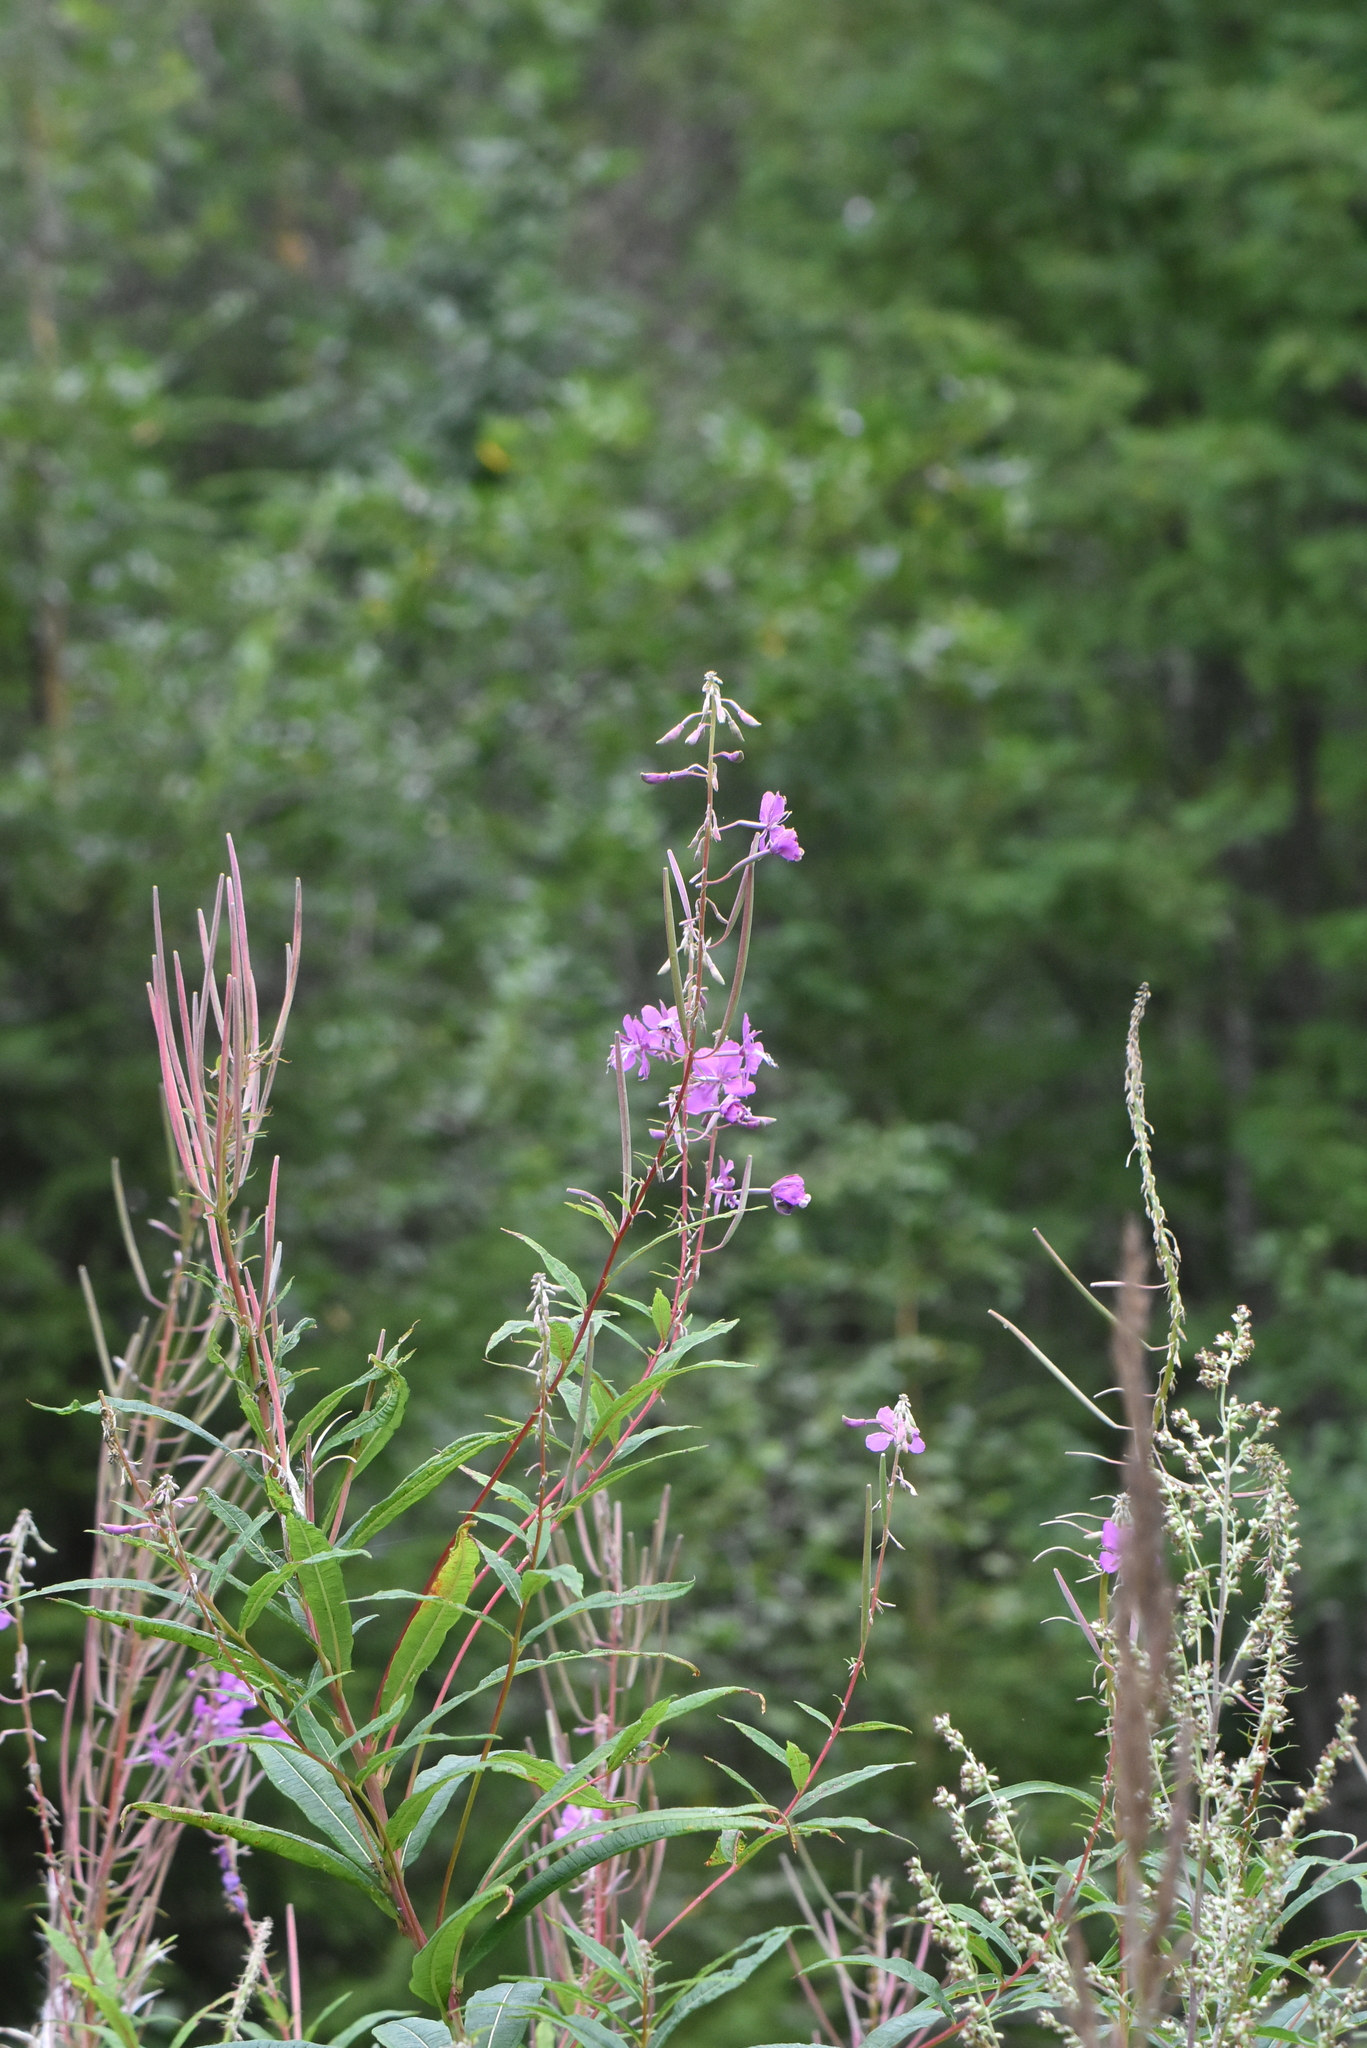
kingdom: Plantae
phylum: Tracheophyta
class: Magnoliopsida
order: Myrtales
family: Onagraceae
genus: Chamaenerion
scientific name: Chamaenerion angustifolium
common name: Fireweed
